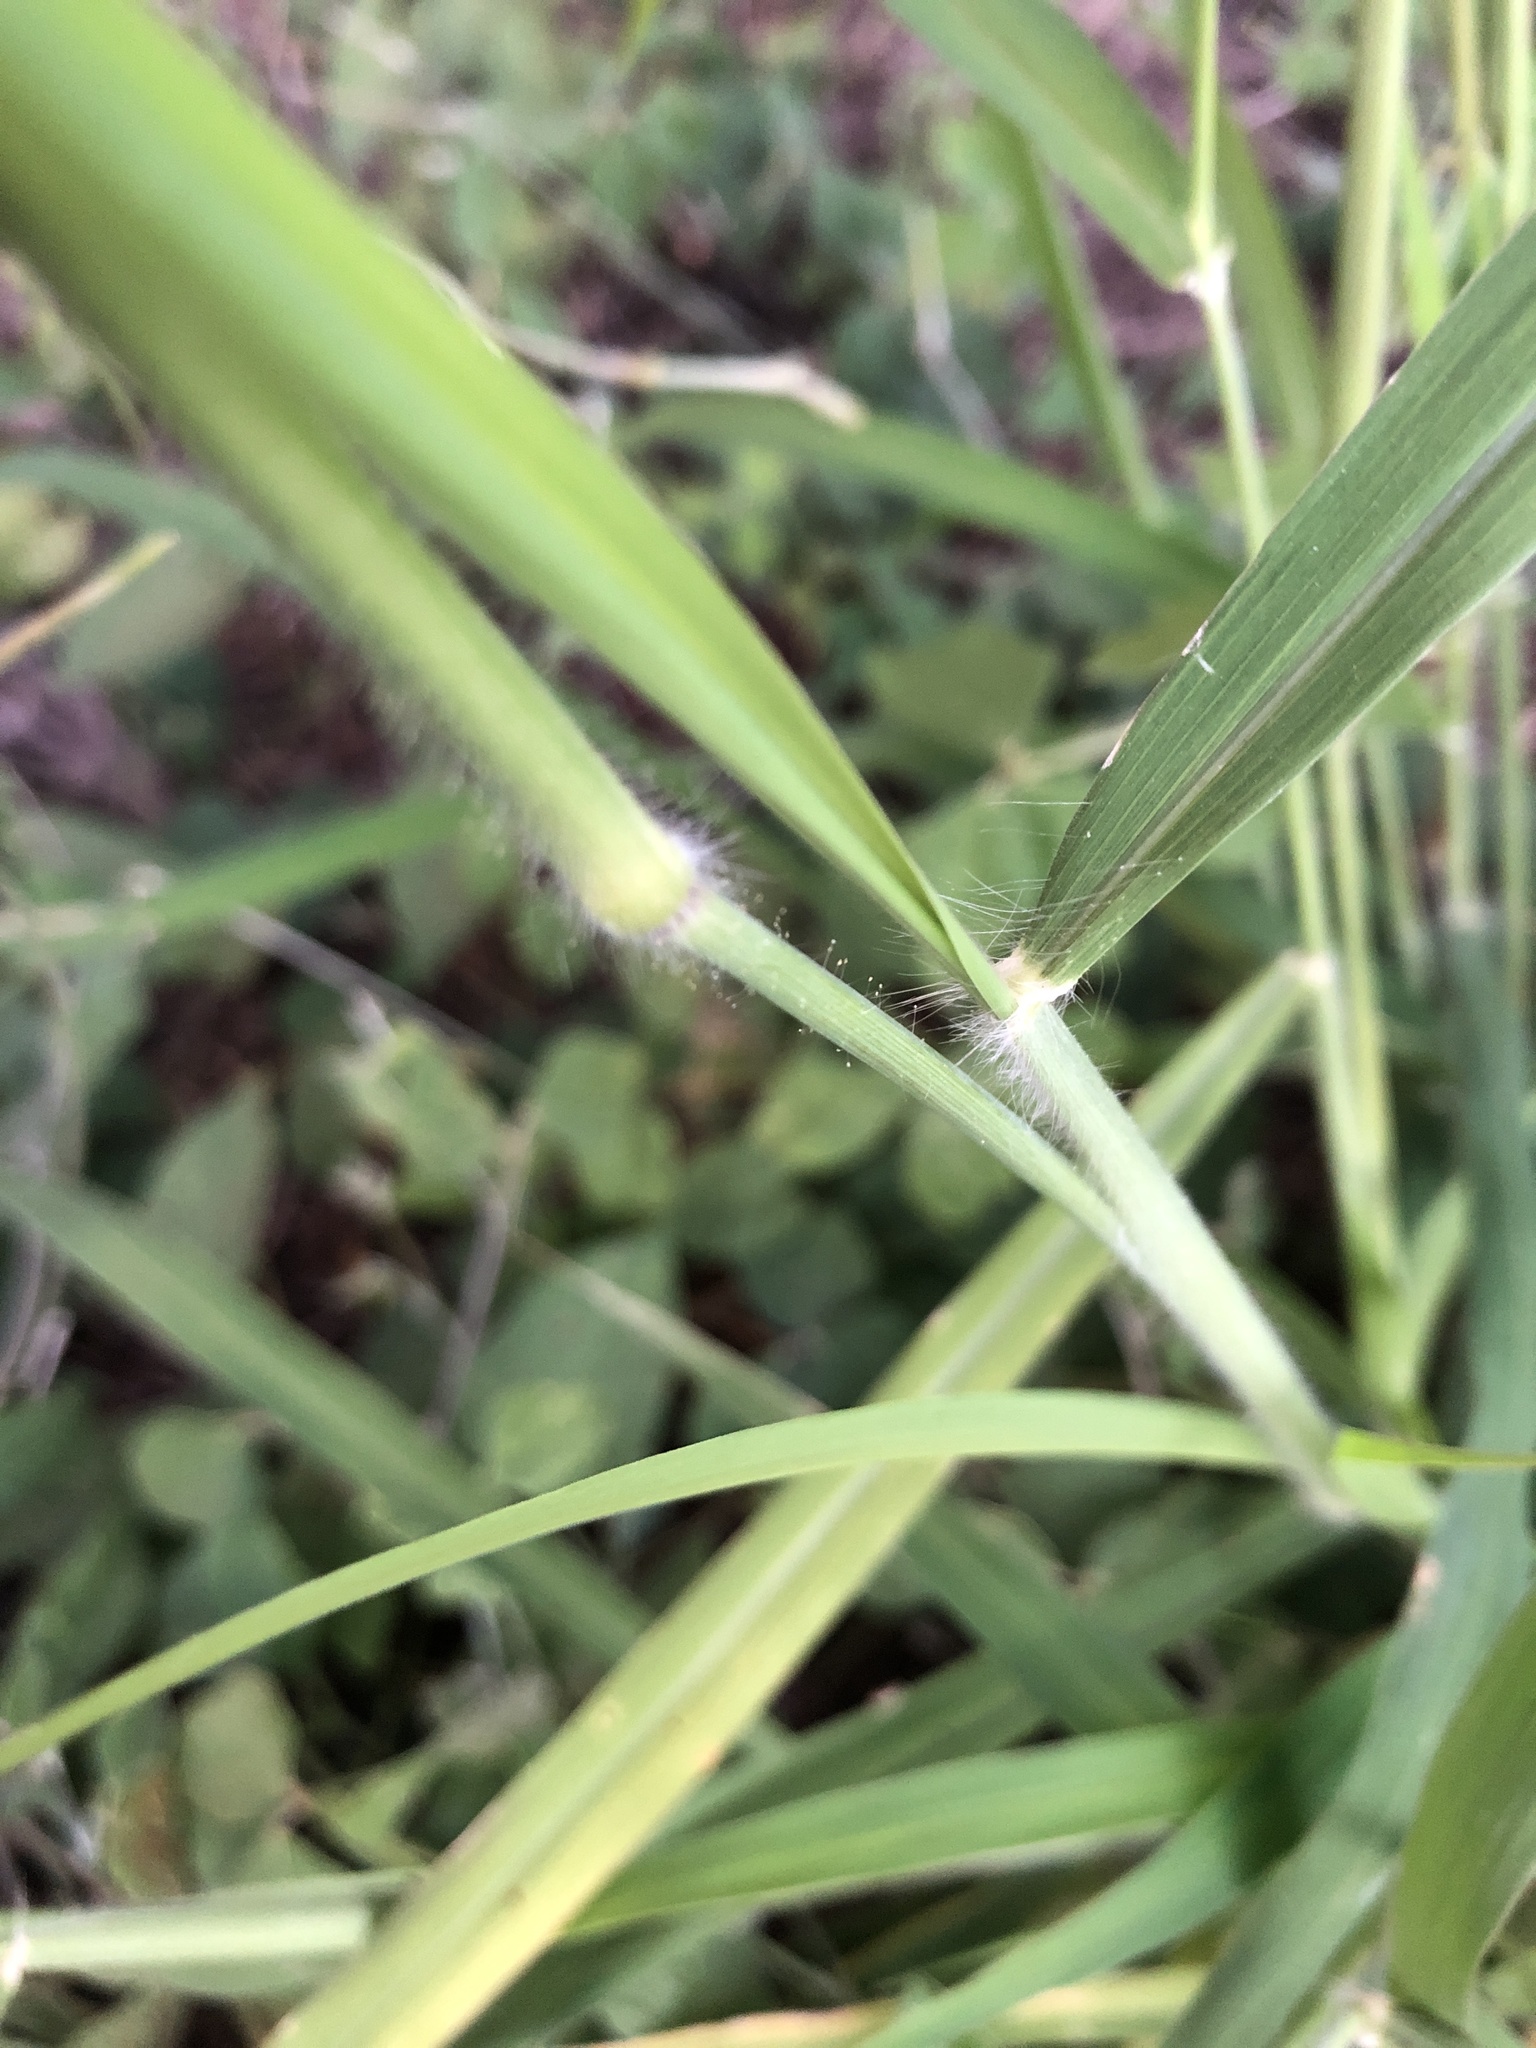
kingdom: Plantae
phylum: Tracheophyta
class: Liliopsida
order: Poales
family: Poaceae
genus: Megathyrsus
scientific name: Megathyrsus maximus
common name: Guineagrass
